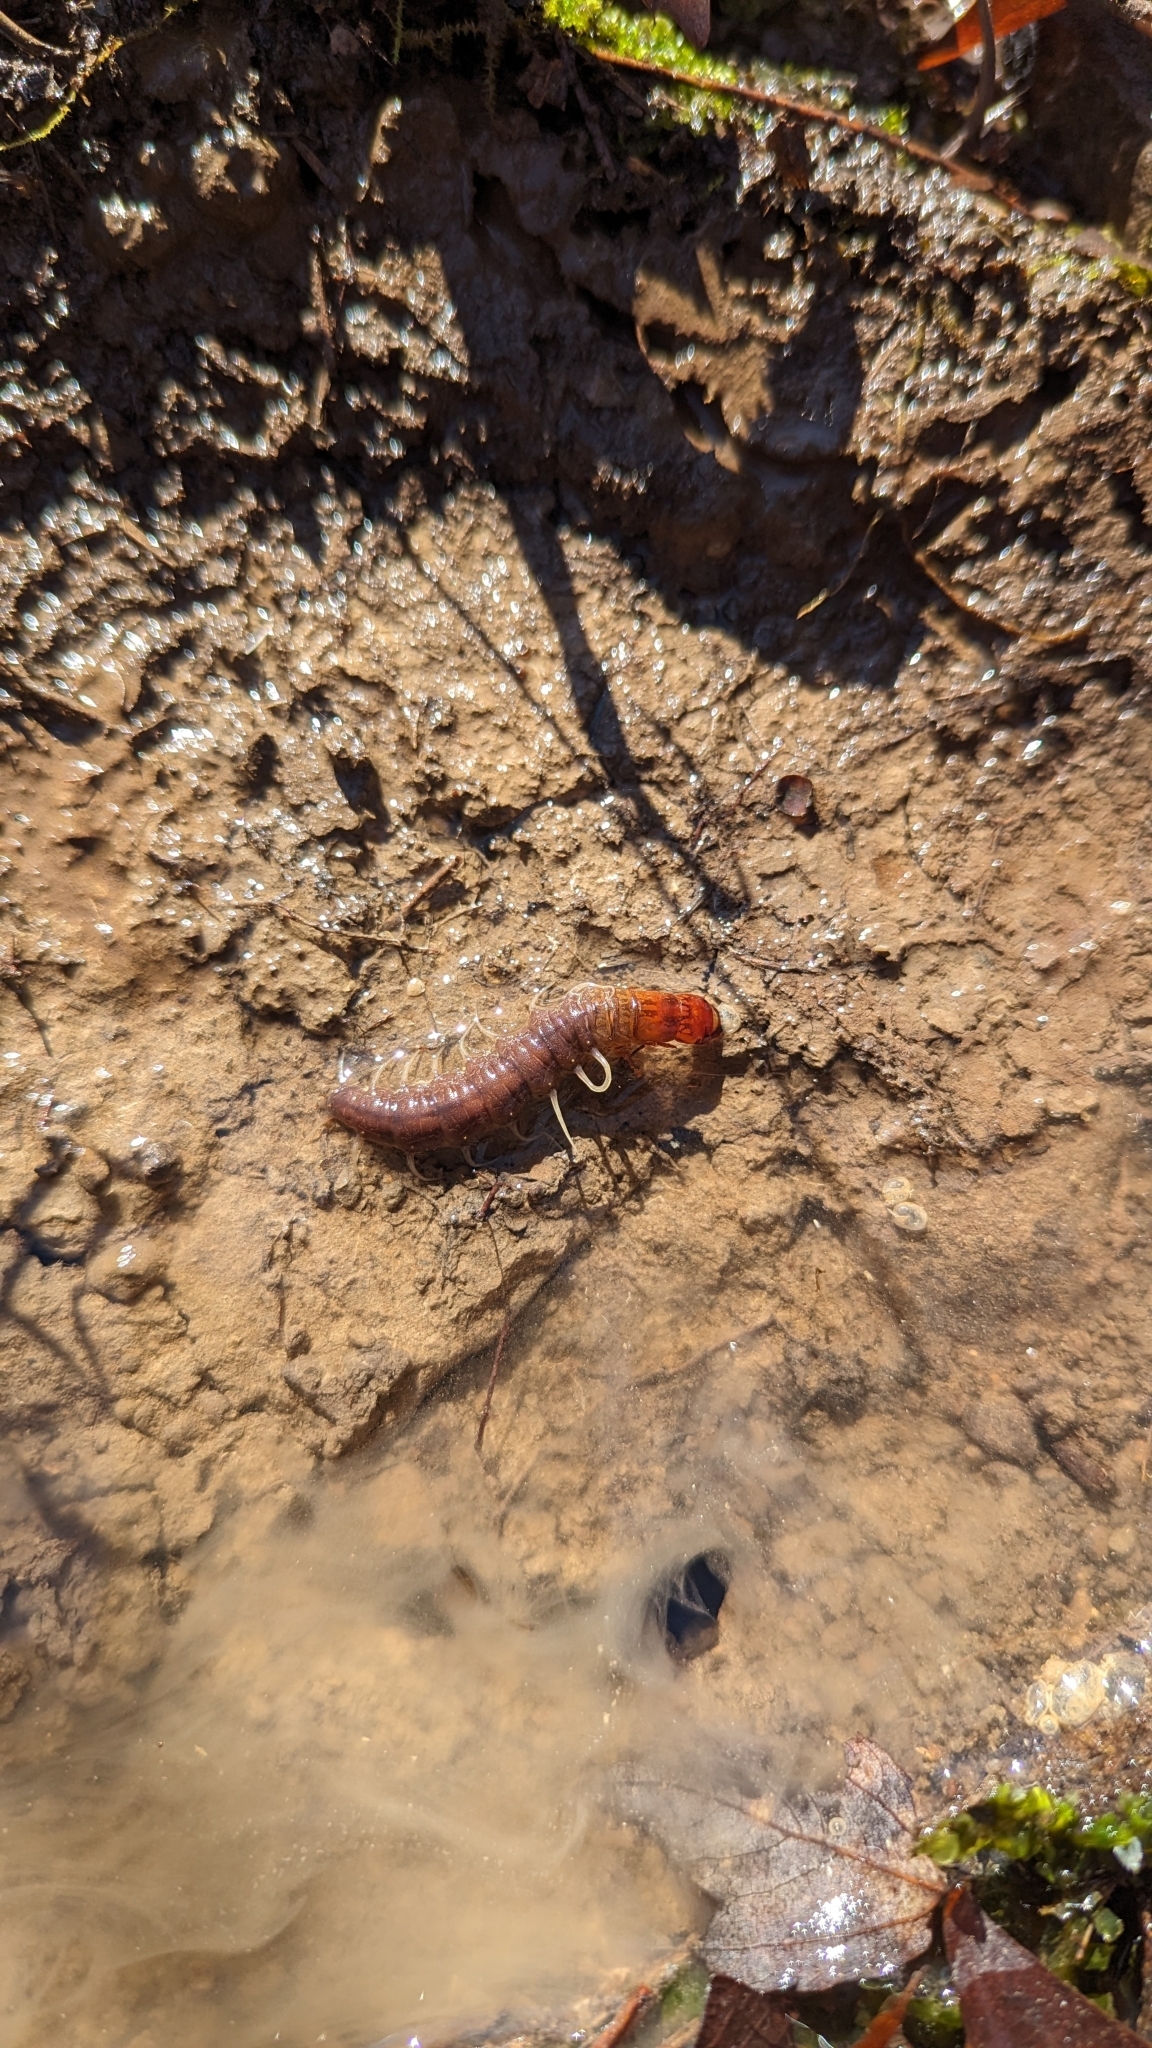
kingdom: Animalia
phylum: Arthropoda
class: Insecta
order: Megaloptera
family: Corydalidae
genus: Neohermes
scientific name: Neohermes concolor
